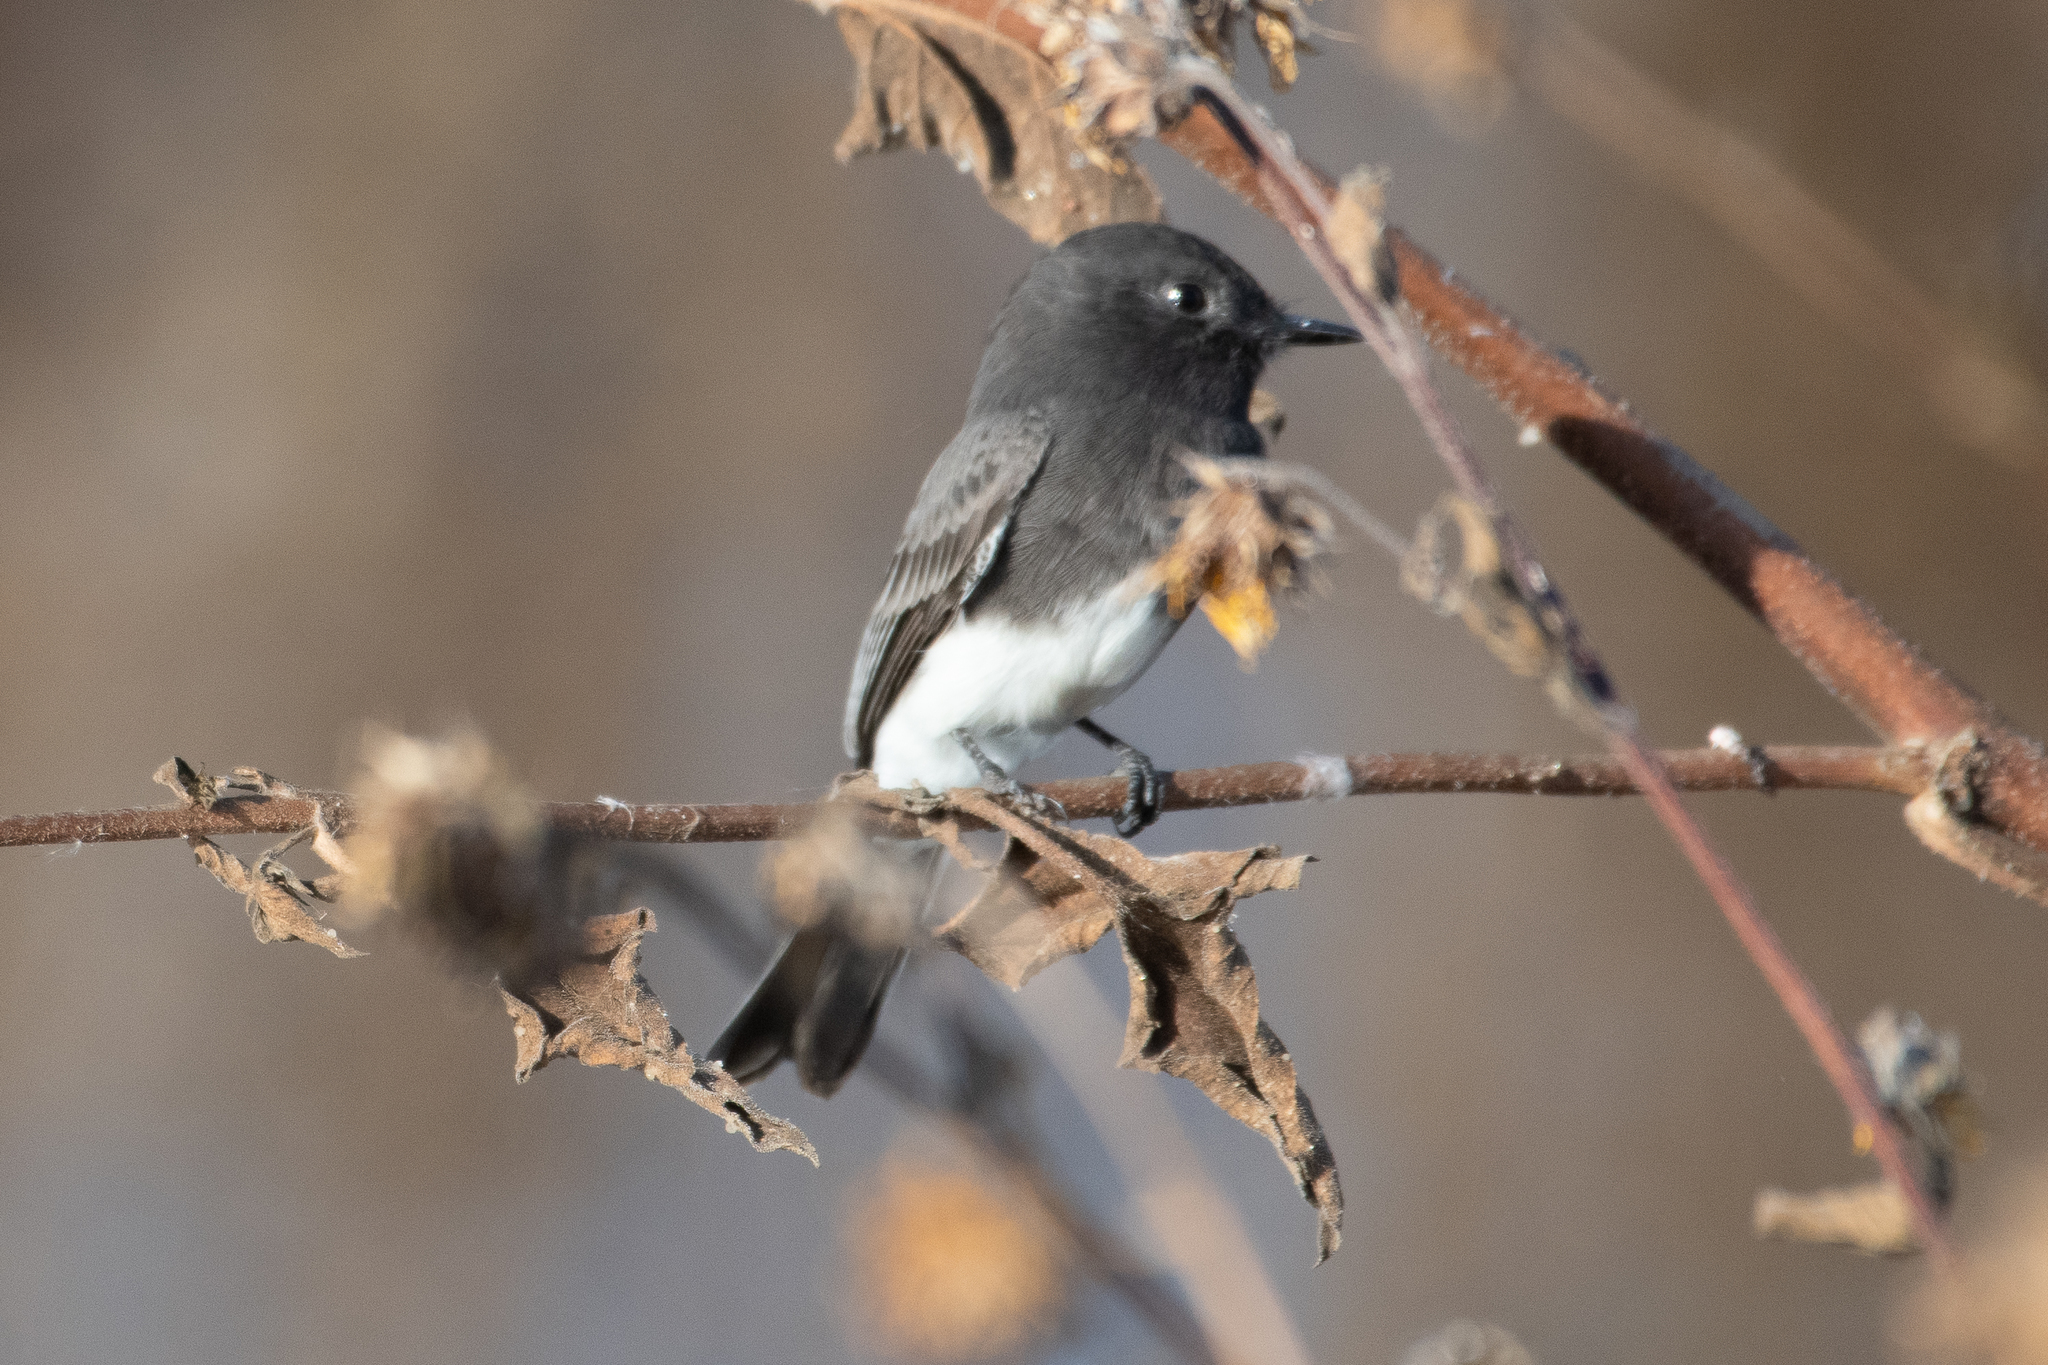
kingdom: Animalia
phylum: Chordata
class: Aves
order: Passeriformes
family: Tyrannidae
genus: Sayornis
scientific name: Sayornis nigricans
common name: Black phoebe
